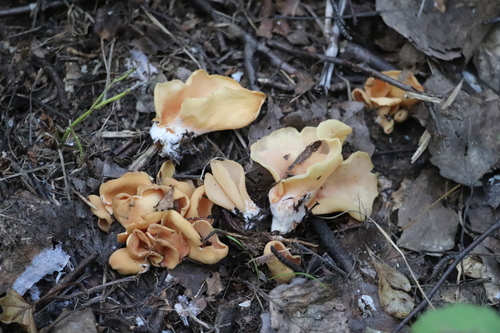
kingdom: Fungi
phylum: Ascomycota
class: Pezizomycetes
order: Pezizales
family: Otideaceae
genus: Otidea
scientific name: Otidea onotica
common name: Hare's ear
